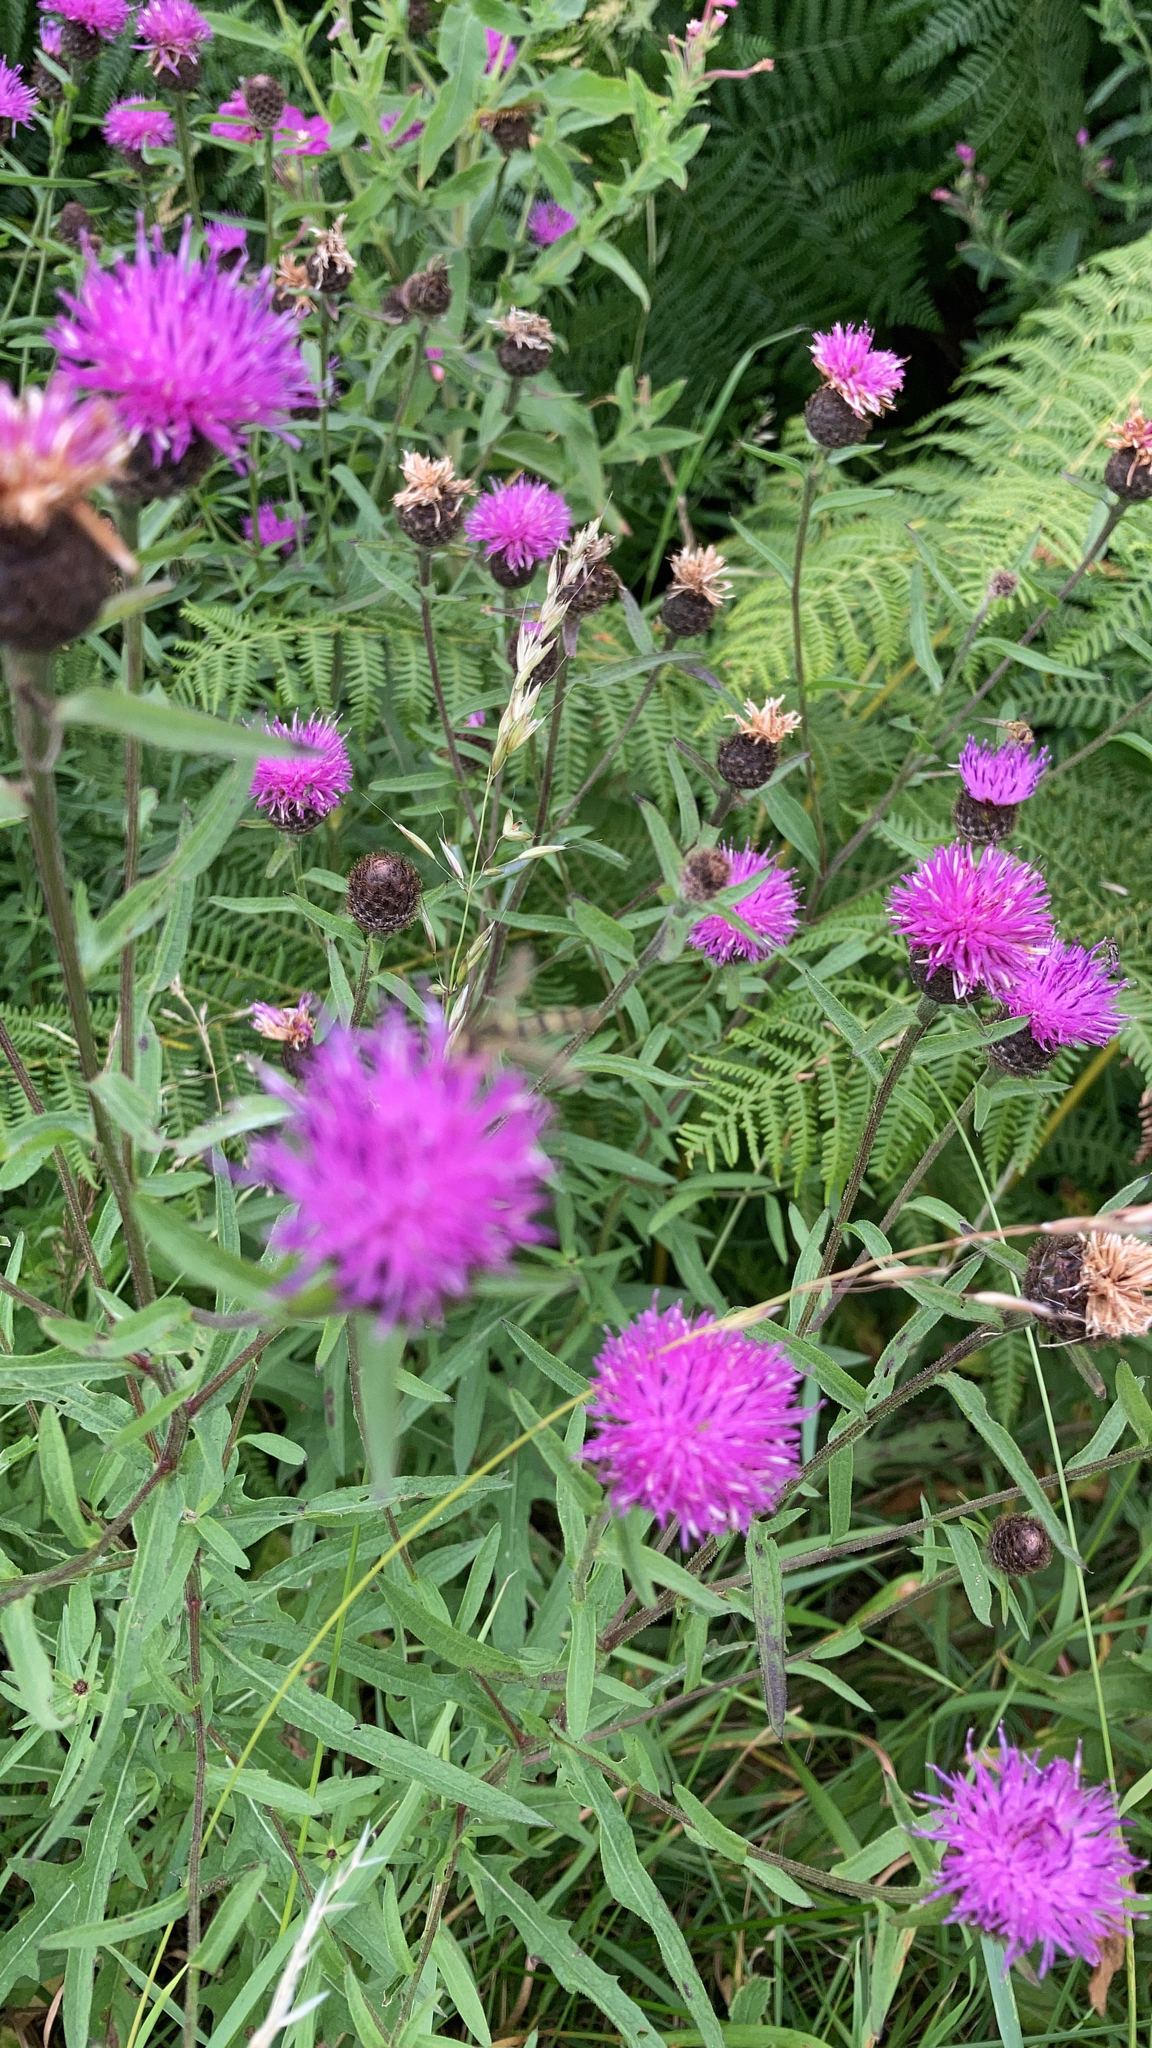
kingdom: Plantae
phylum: Tracheophyta
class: Magnoliopsida
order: Asterales
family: Asteraceae
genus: Centaurea
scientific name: Centaurea nigra
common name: Lesser knapweed
